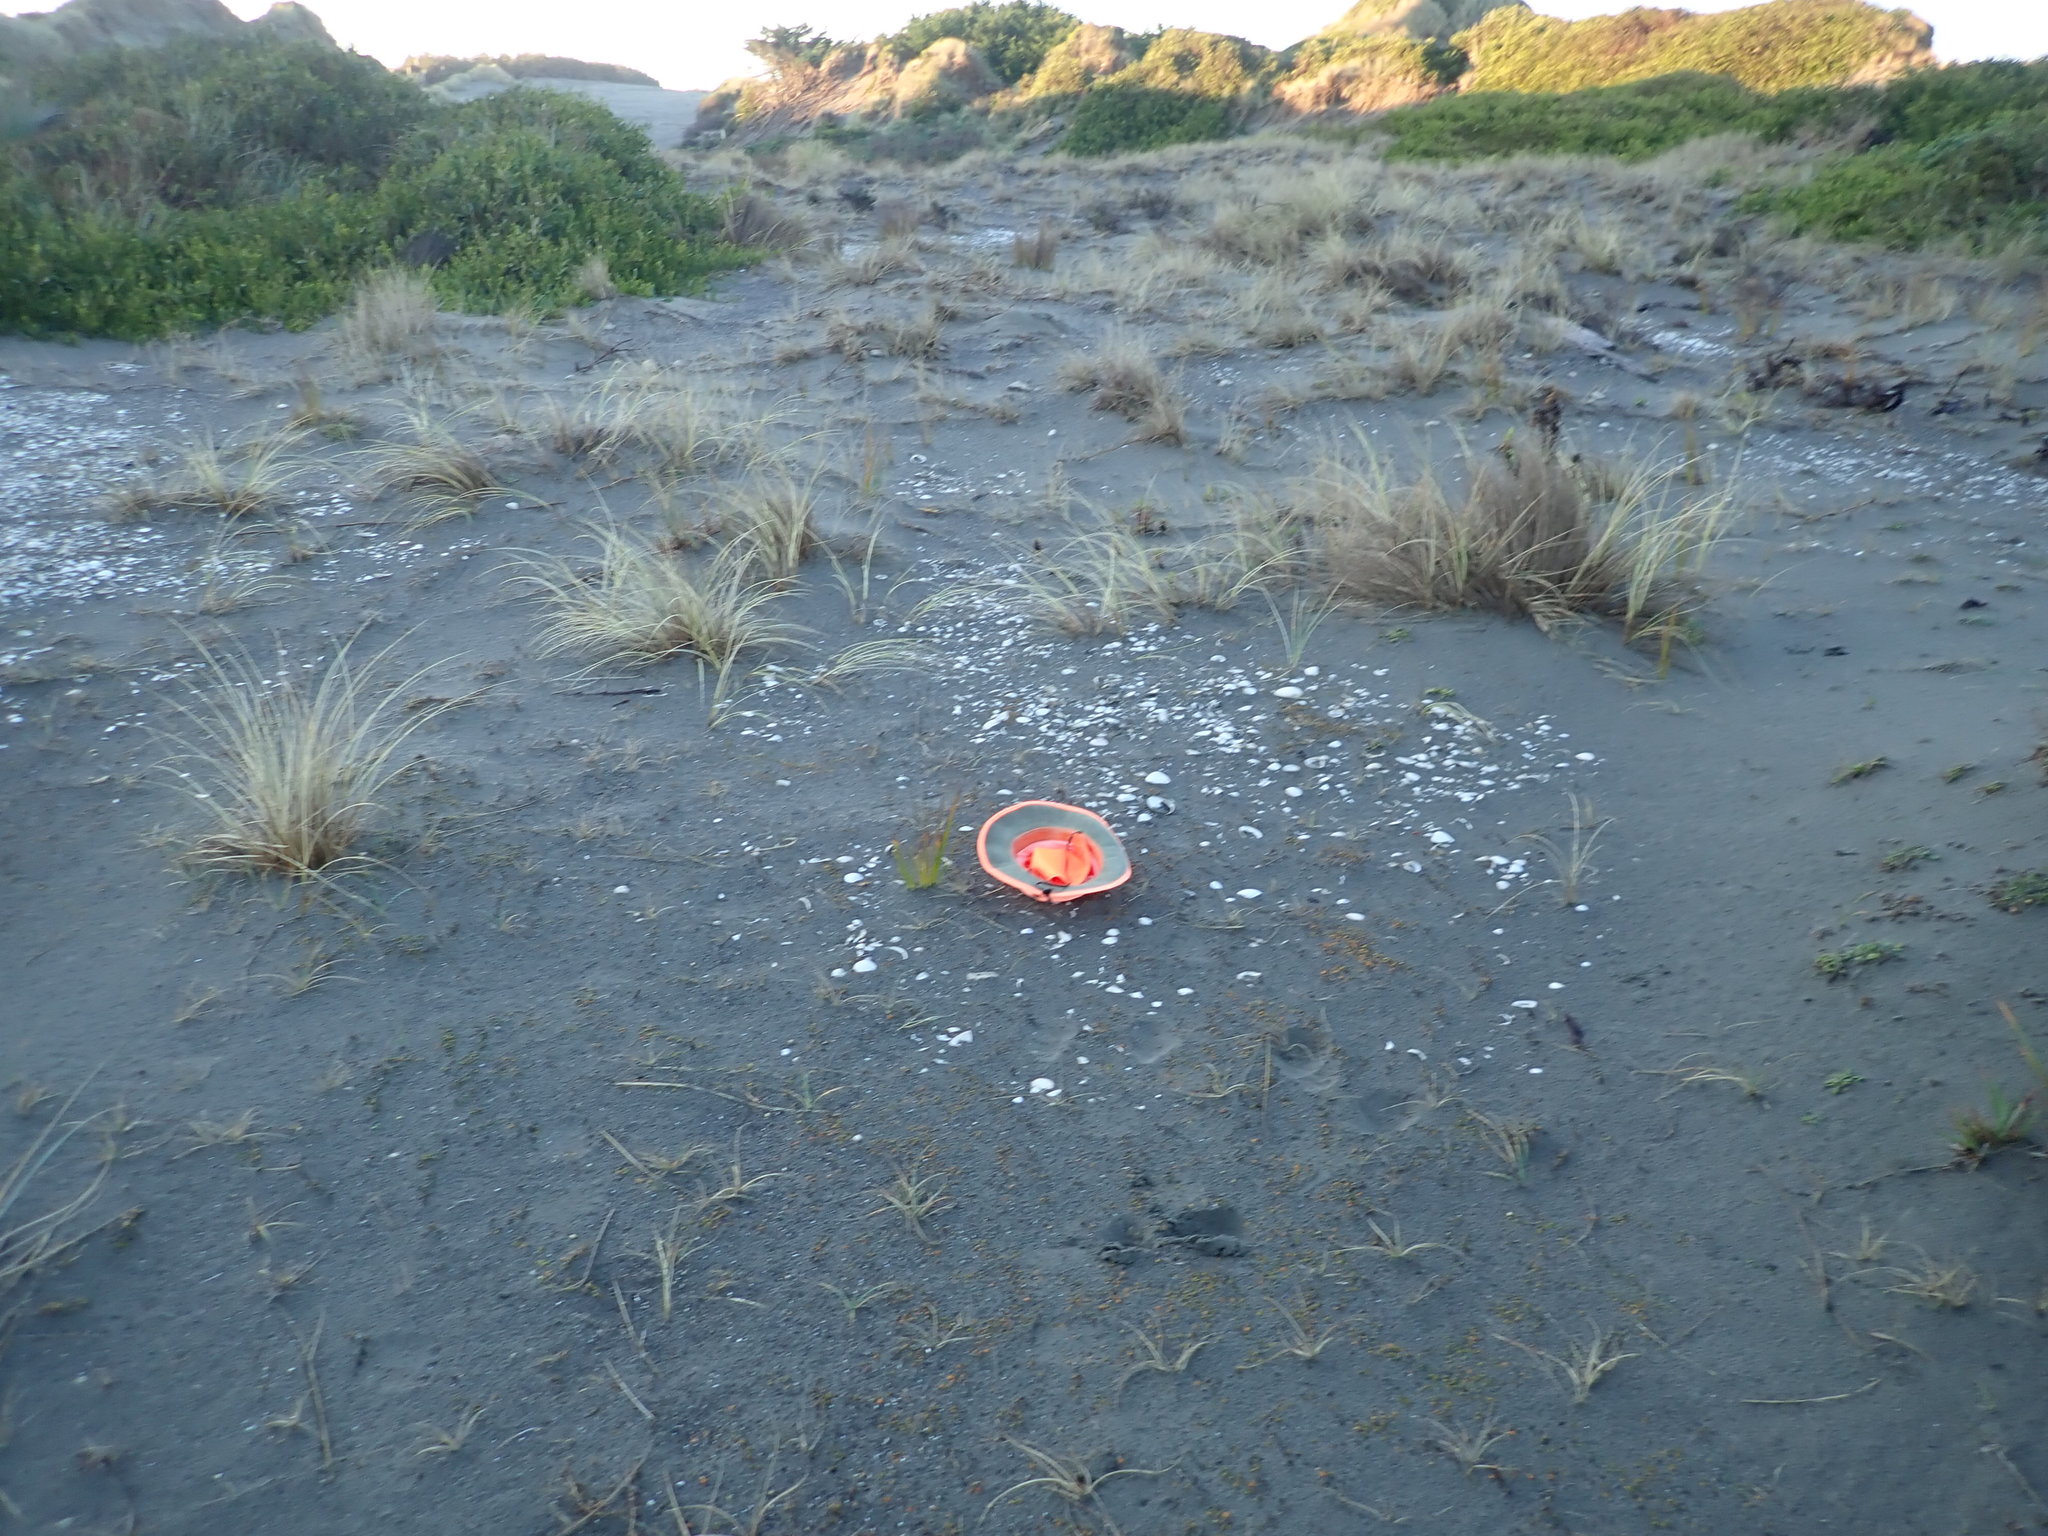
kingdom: Plantae
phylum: Tracheophyta
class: Liliopsida
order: Poales
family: Cyperaceae
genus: Ficinia
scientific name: Ficinia nodosa
